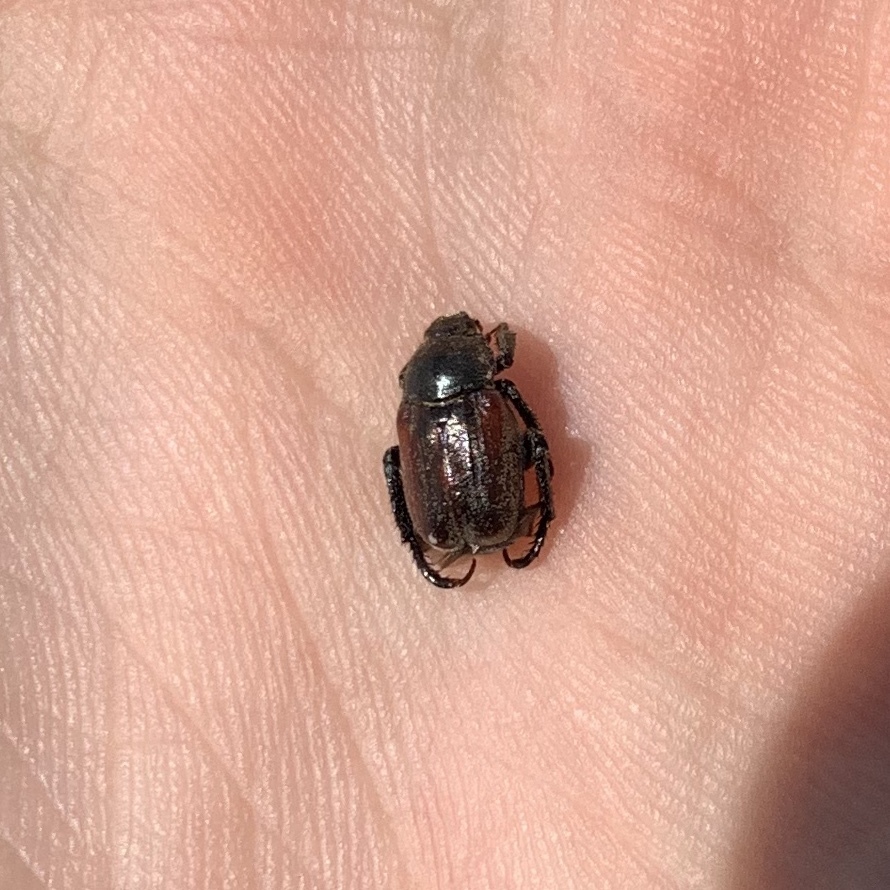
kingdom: Animalia
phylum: Arthropoda
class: Insecta
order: Coleoptera
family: Scarabaeidae
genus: Hoplia
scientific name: Hoplia philanthus
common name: Welsh chafer
